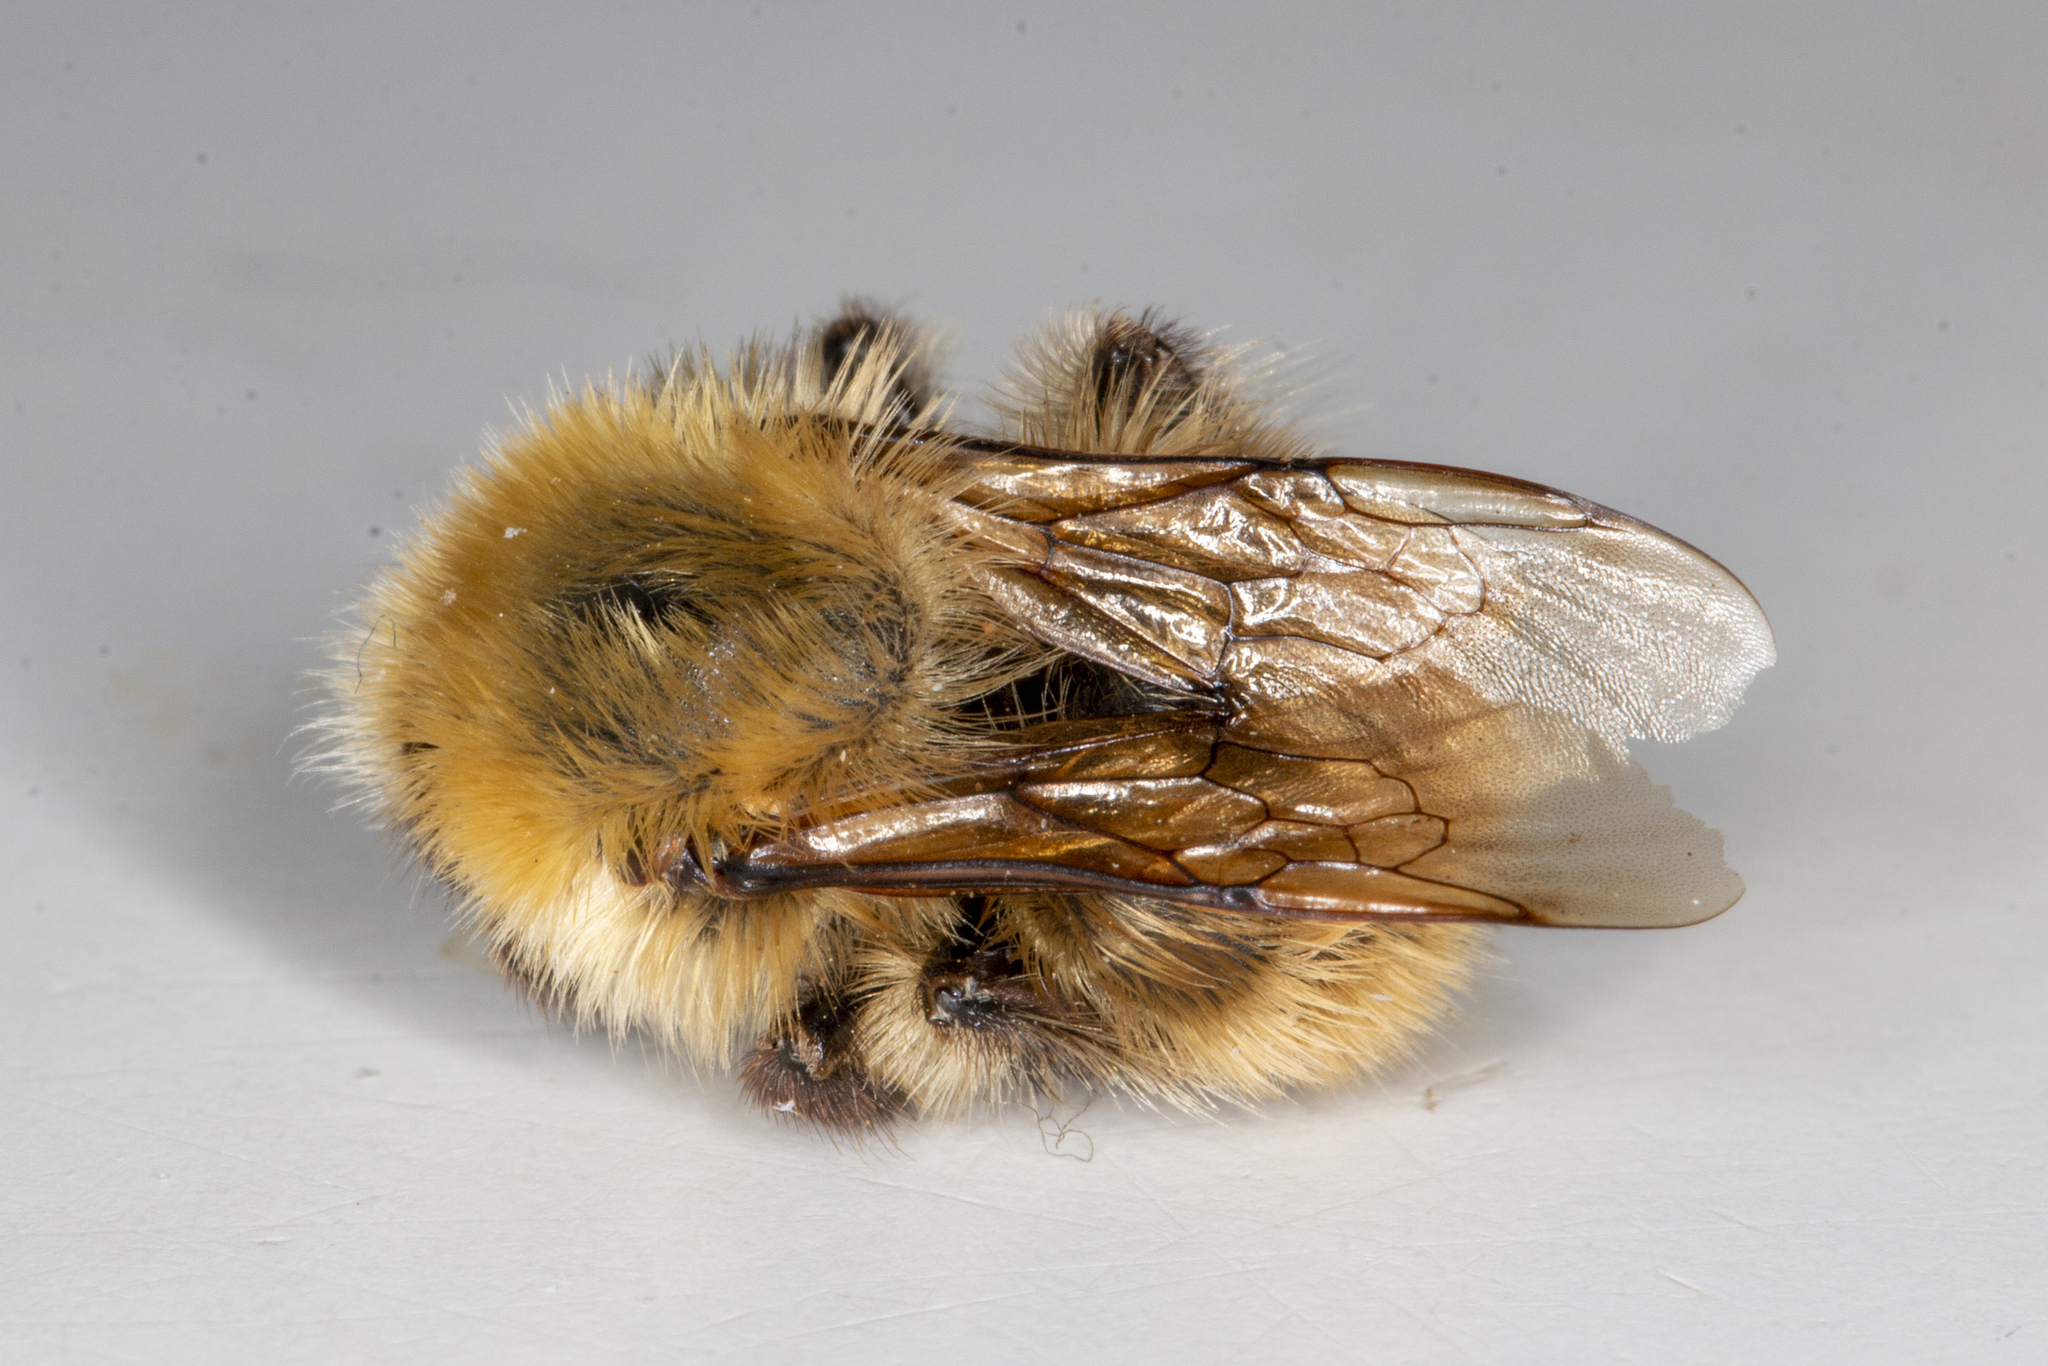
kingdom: Animalia
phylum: Arthropoda
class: Insecta
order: Hymenoptera
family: Apidae
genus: Bombus
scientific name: Bombus muscorum
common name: Moss carder-bee
